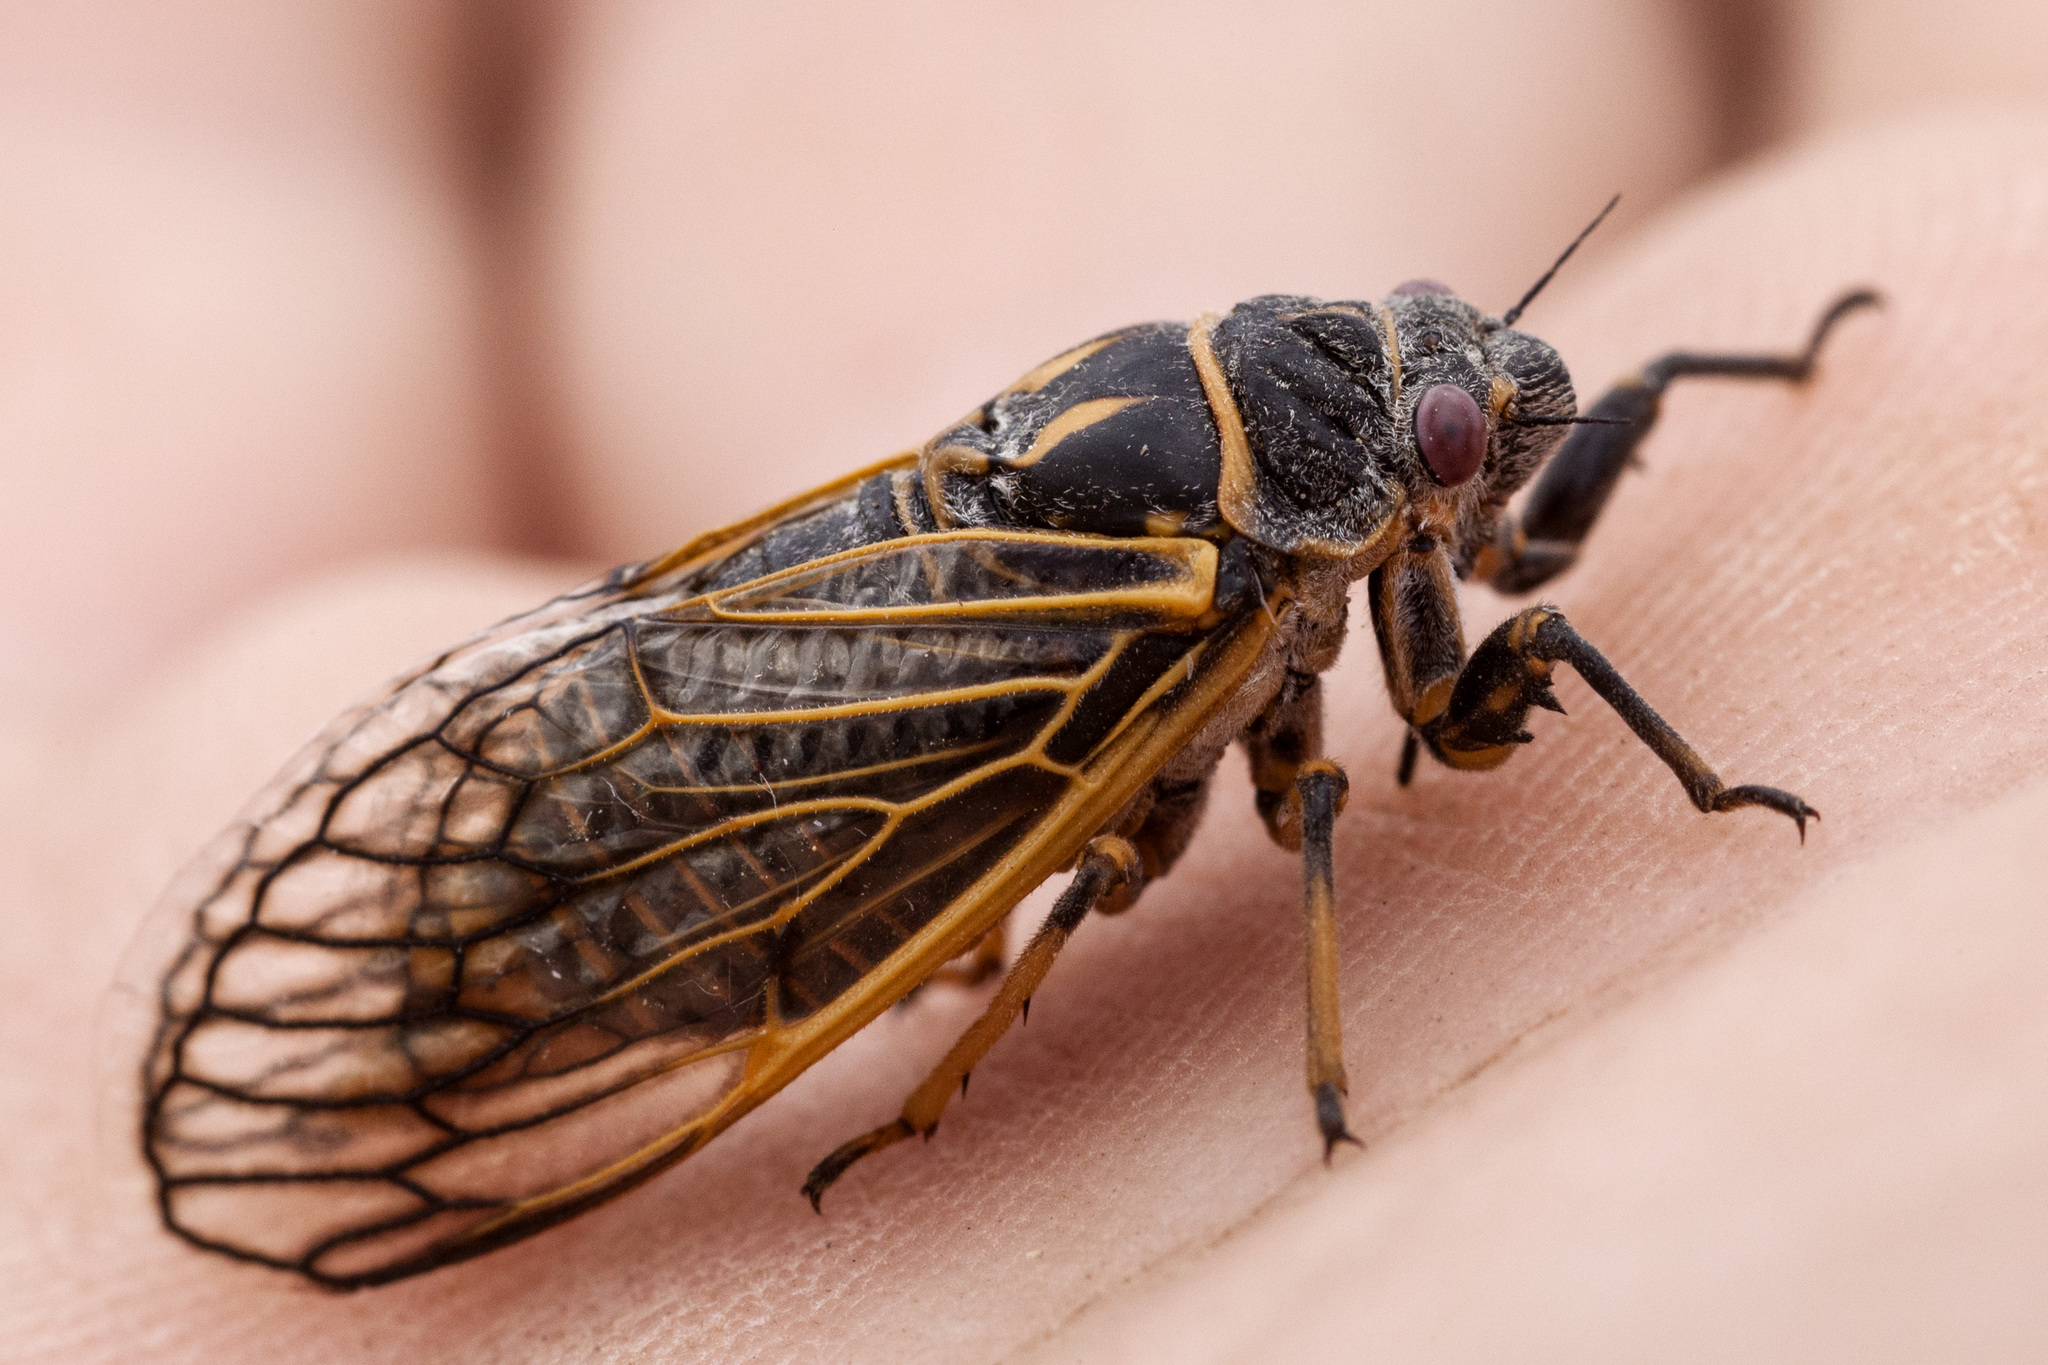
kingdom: Animalia
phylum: Arthropoda
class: Insecta
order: Hemiptera
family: Cicadidae
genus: Okanagana
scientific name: Okanagana synodica
